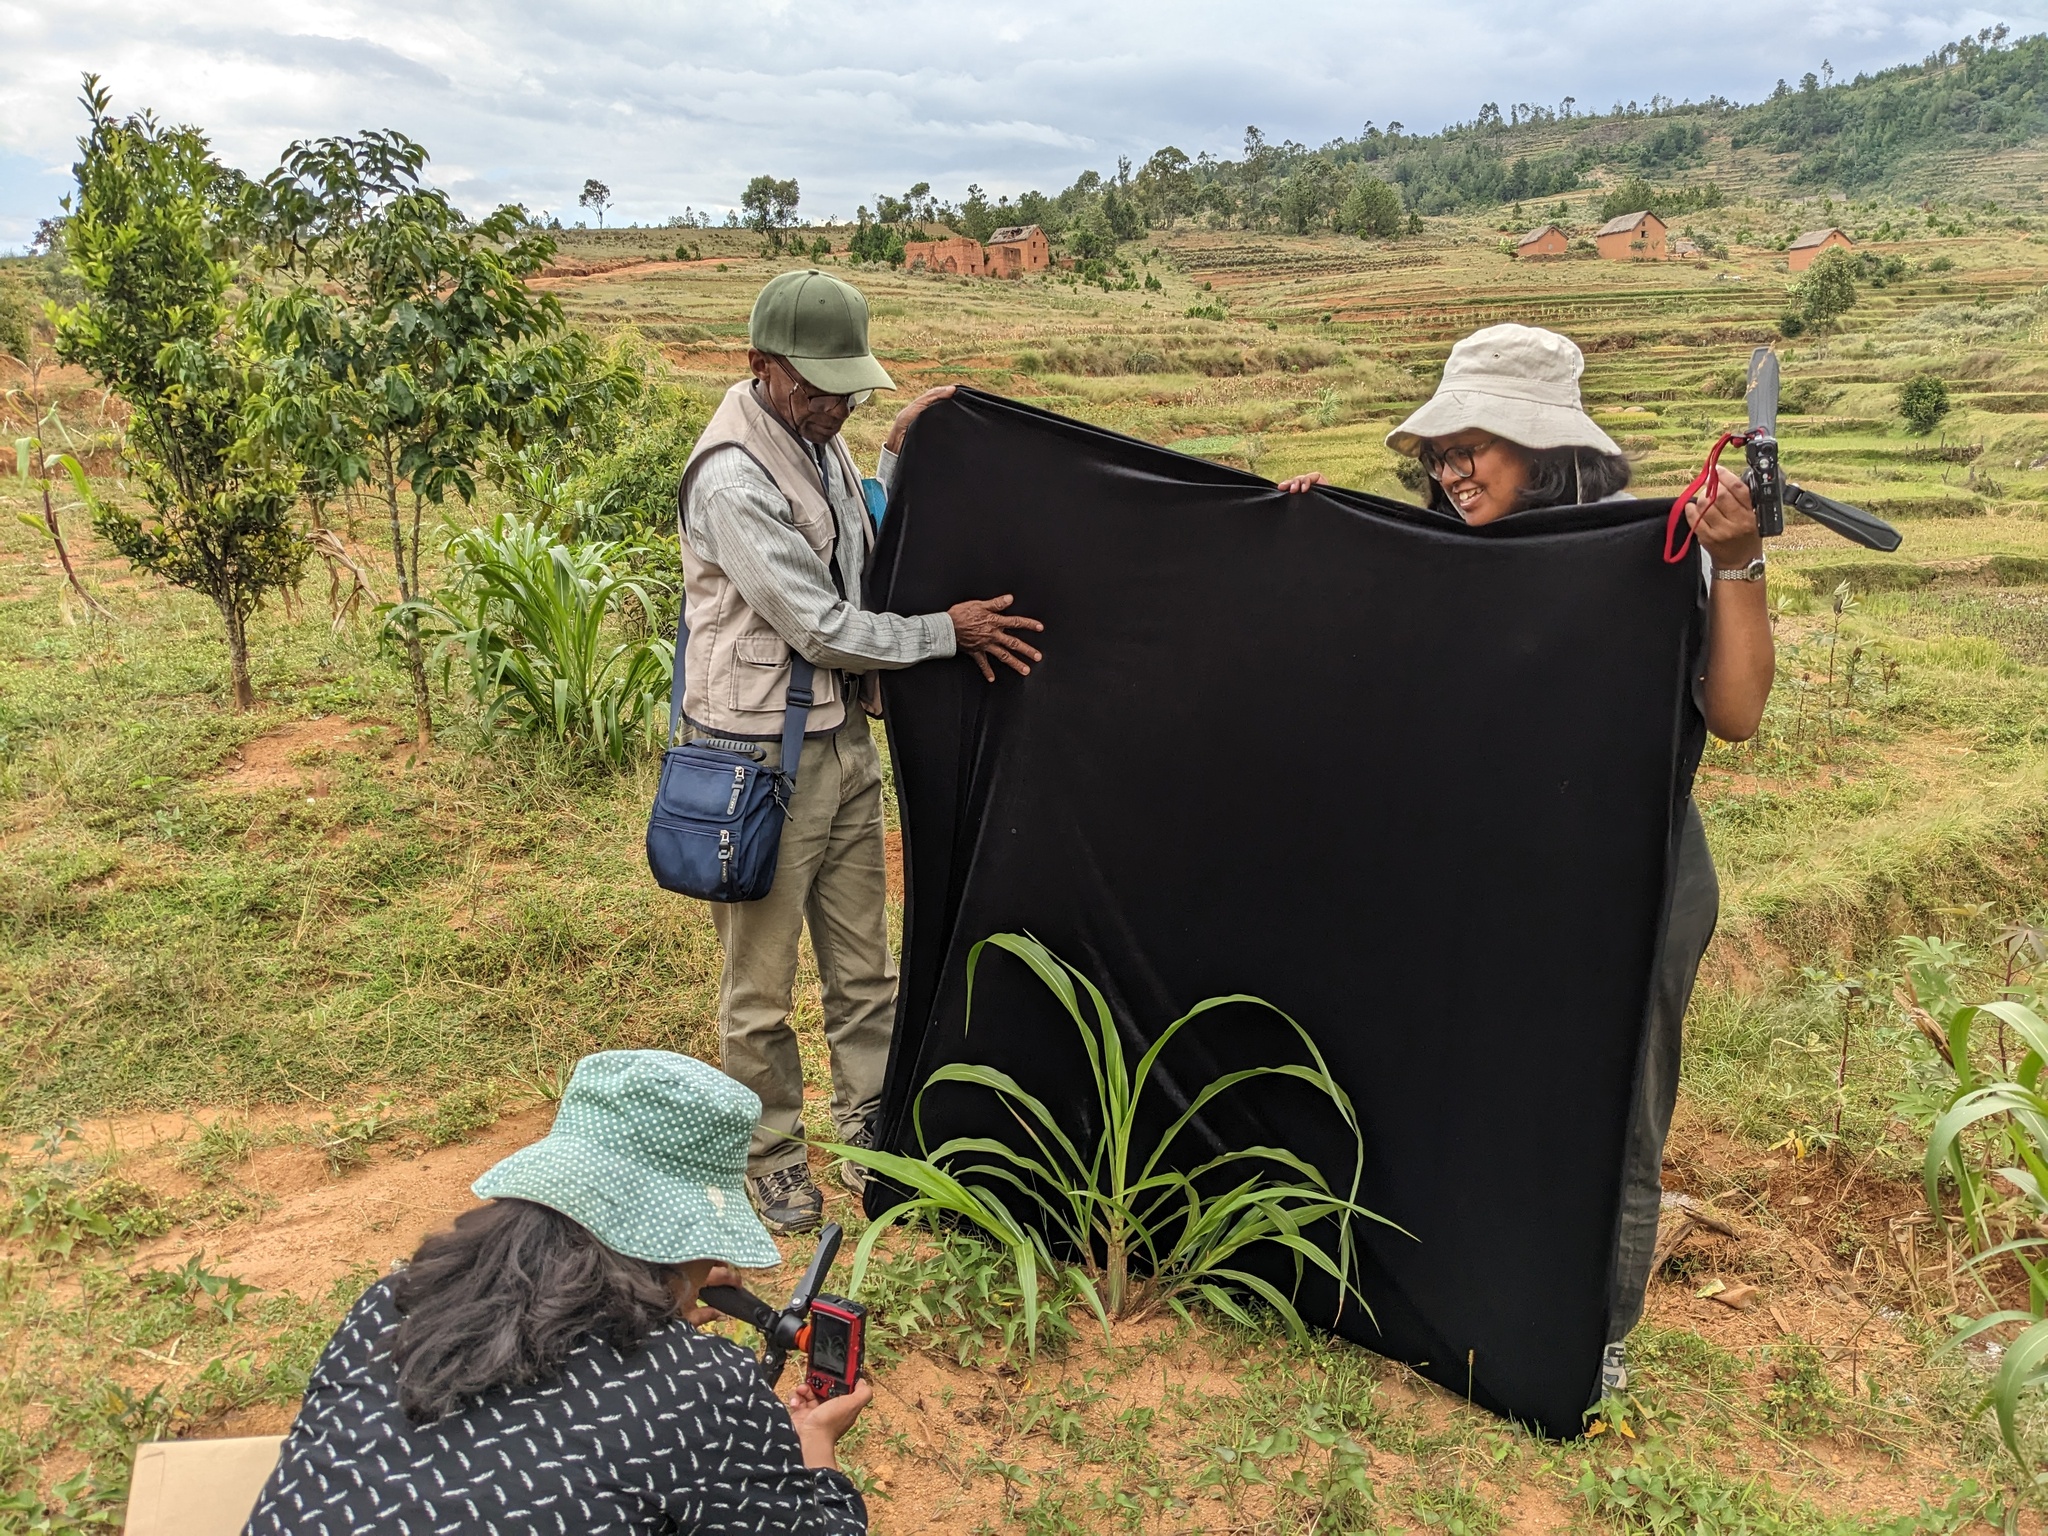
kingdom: Plantae
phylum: Tracheophyta
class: Liliopsida
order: Poales
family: Poaceae
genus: Tripsacum
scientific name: Tripsacum laxum
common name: Grama-guatemala
